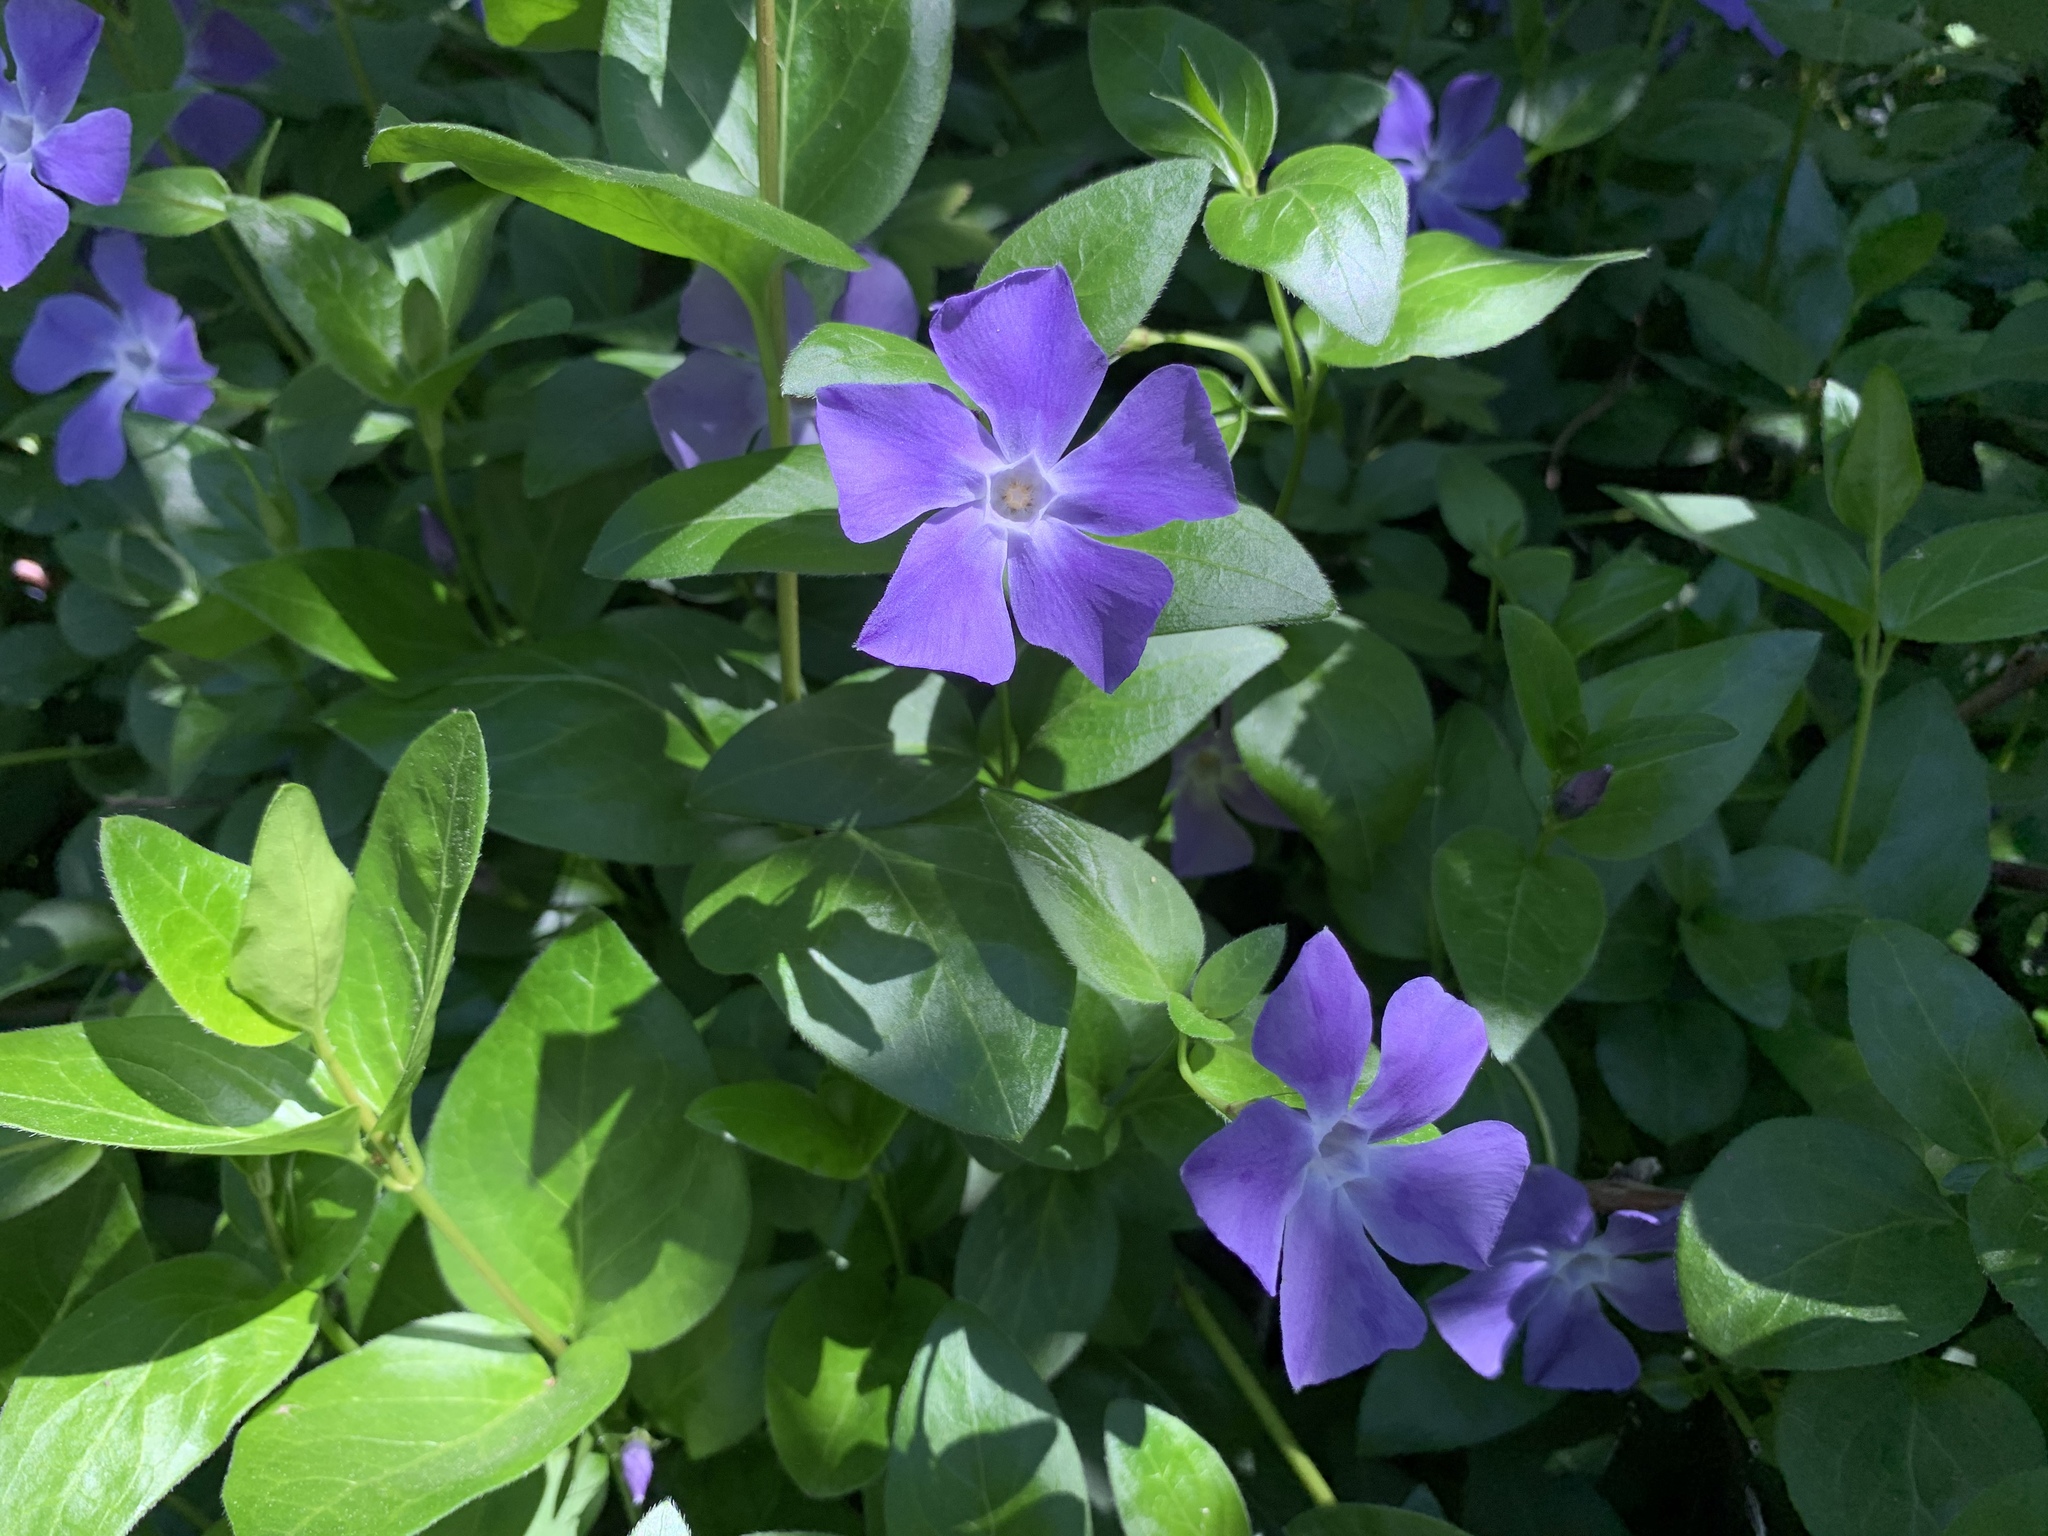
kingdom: Plantae
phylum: Tracheophyta
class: Magnoliopsida
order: Gentianales
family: Apocynaceae
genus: Vinca
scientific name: Vinca major
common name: Greater periwinkle
